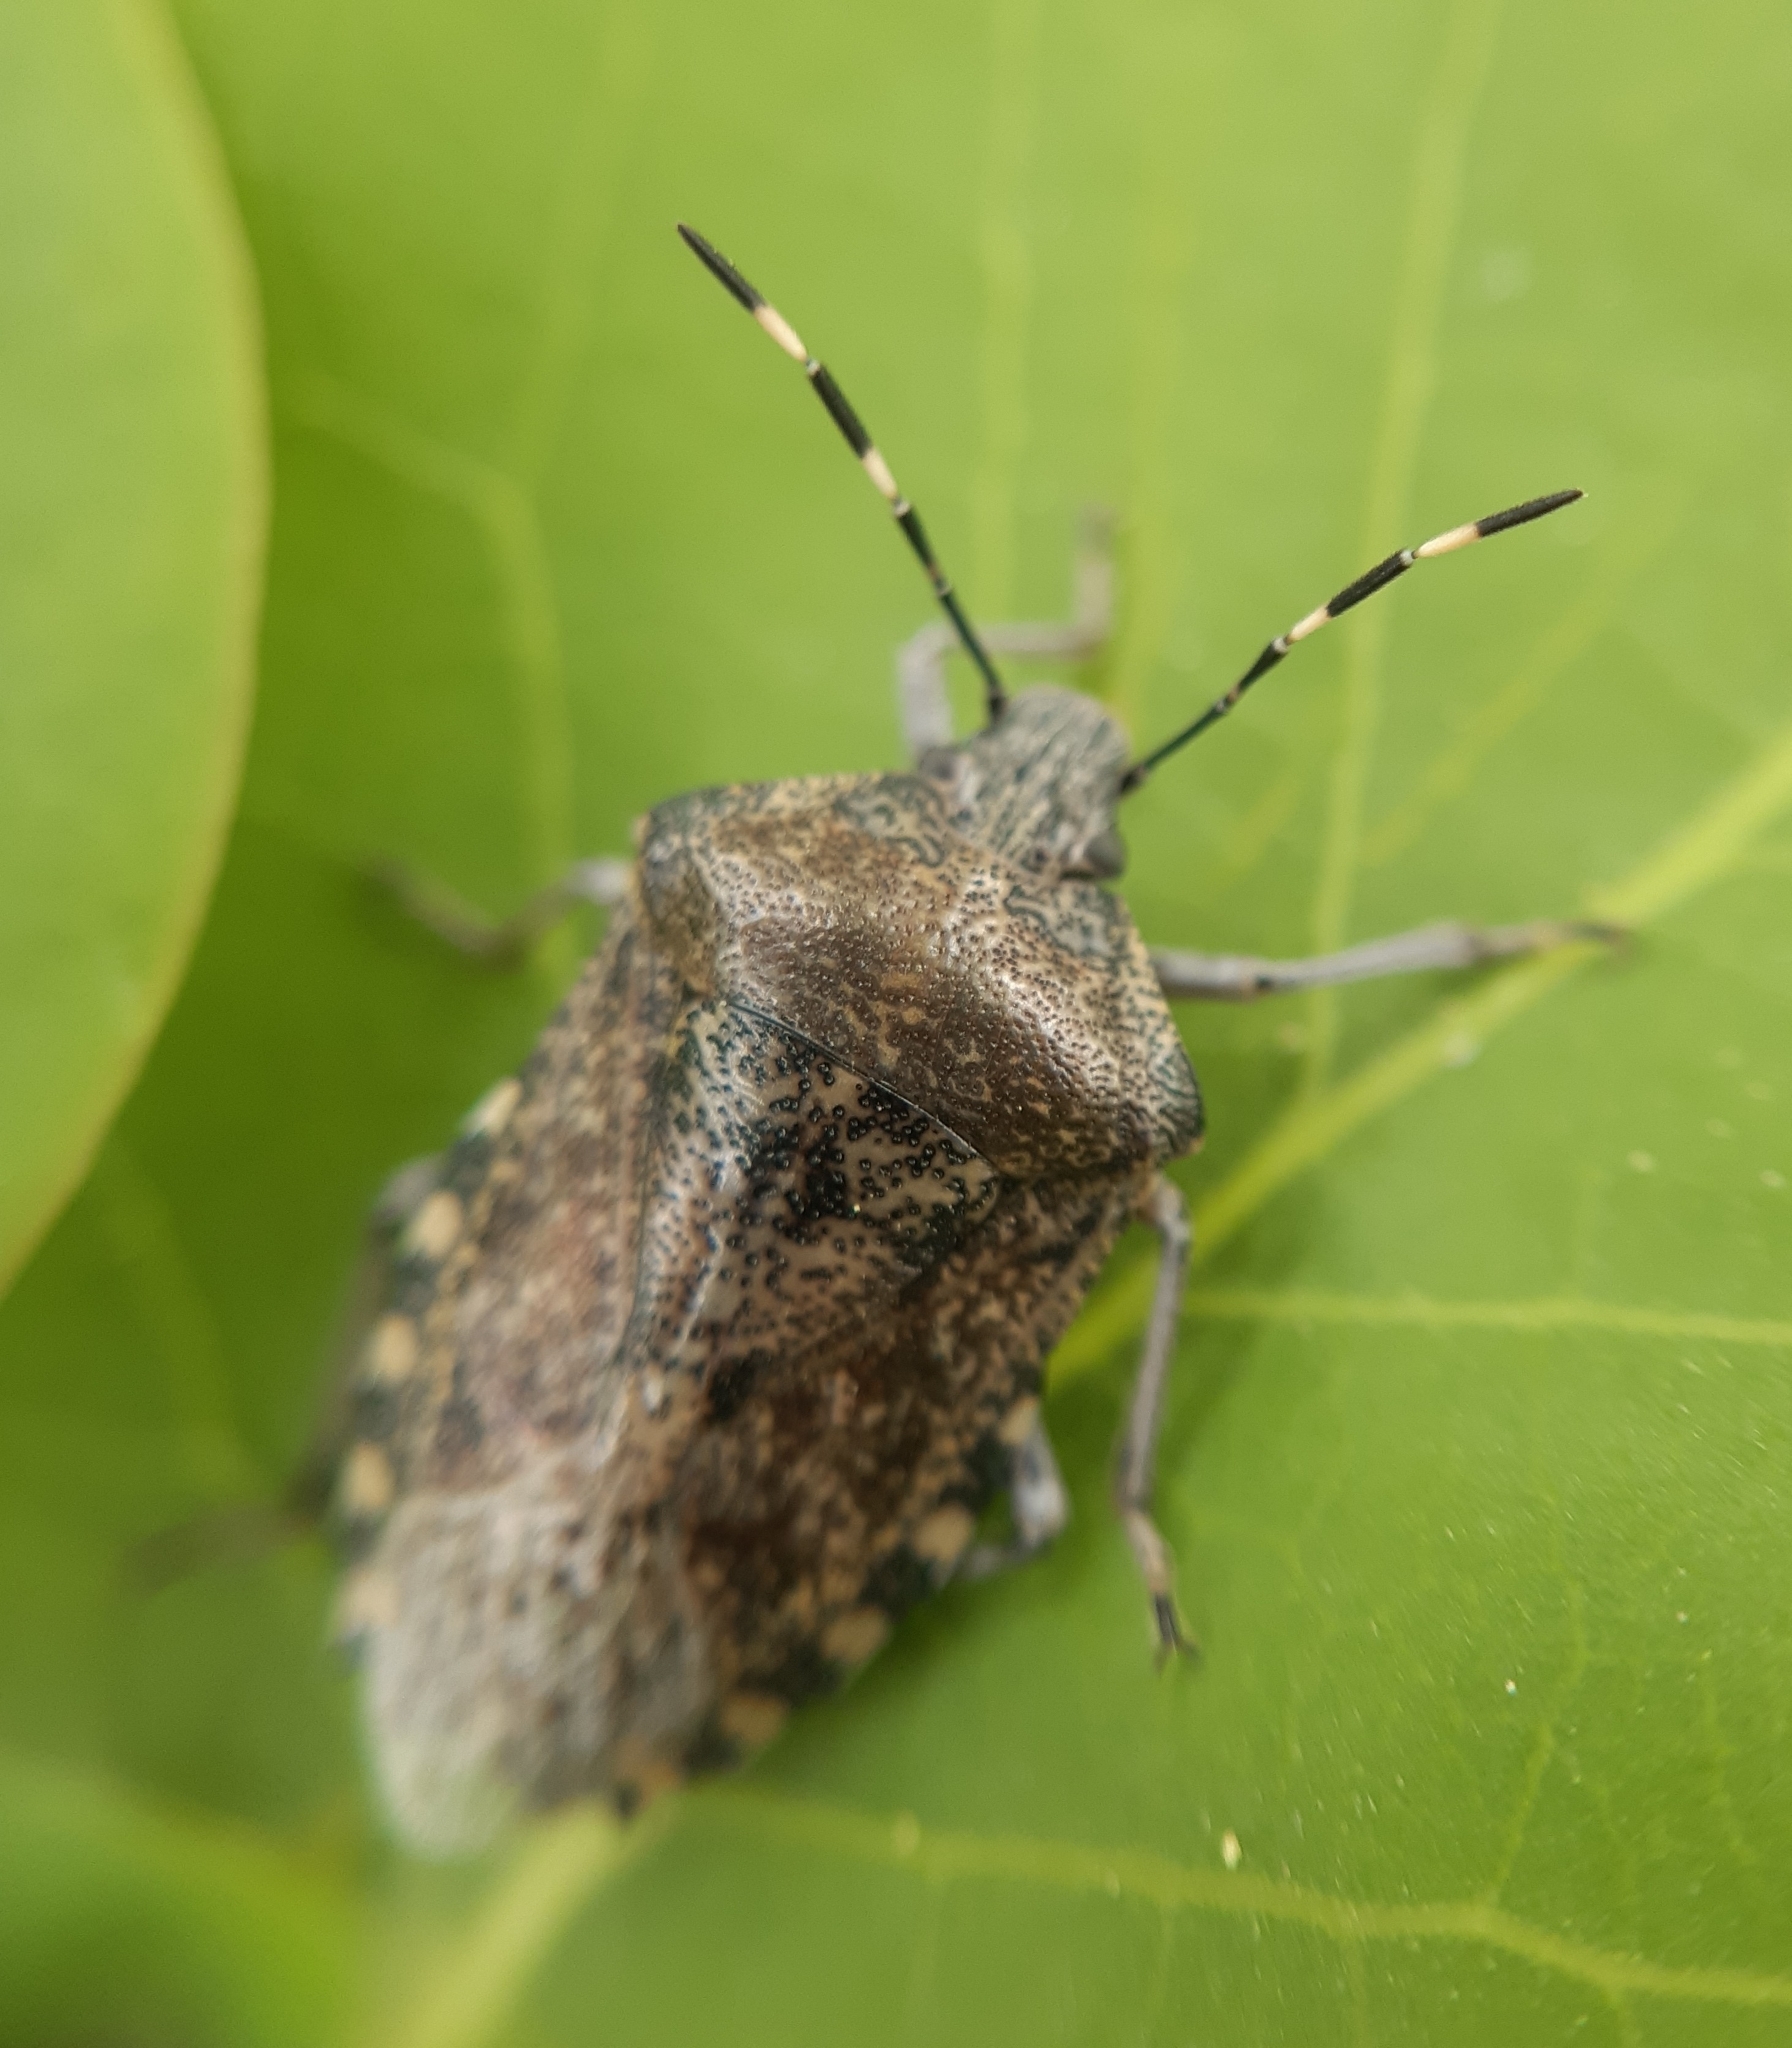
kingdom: Animalia
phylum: Arthropoda
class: Insecta
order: Hemiptera
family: Pentatomidae
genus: Rhaphigaster
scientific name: Rhaphigaster nebulosa
